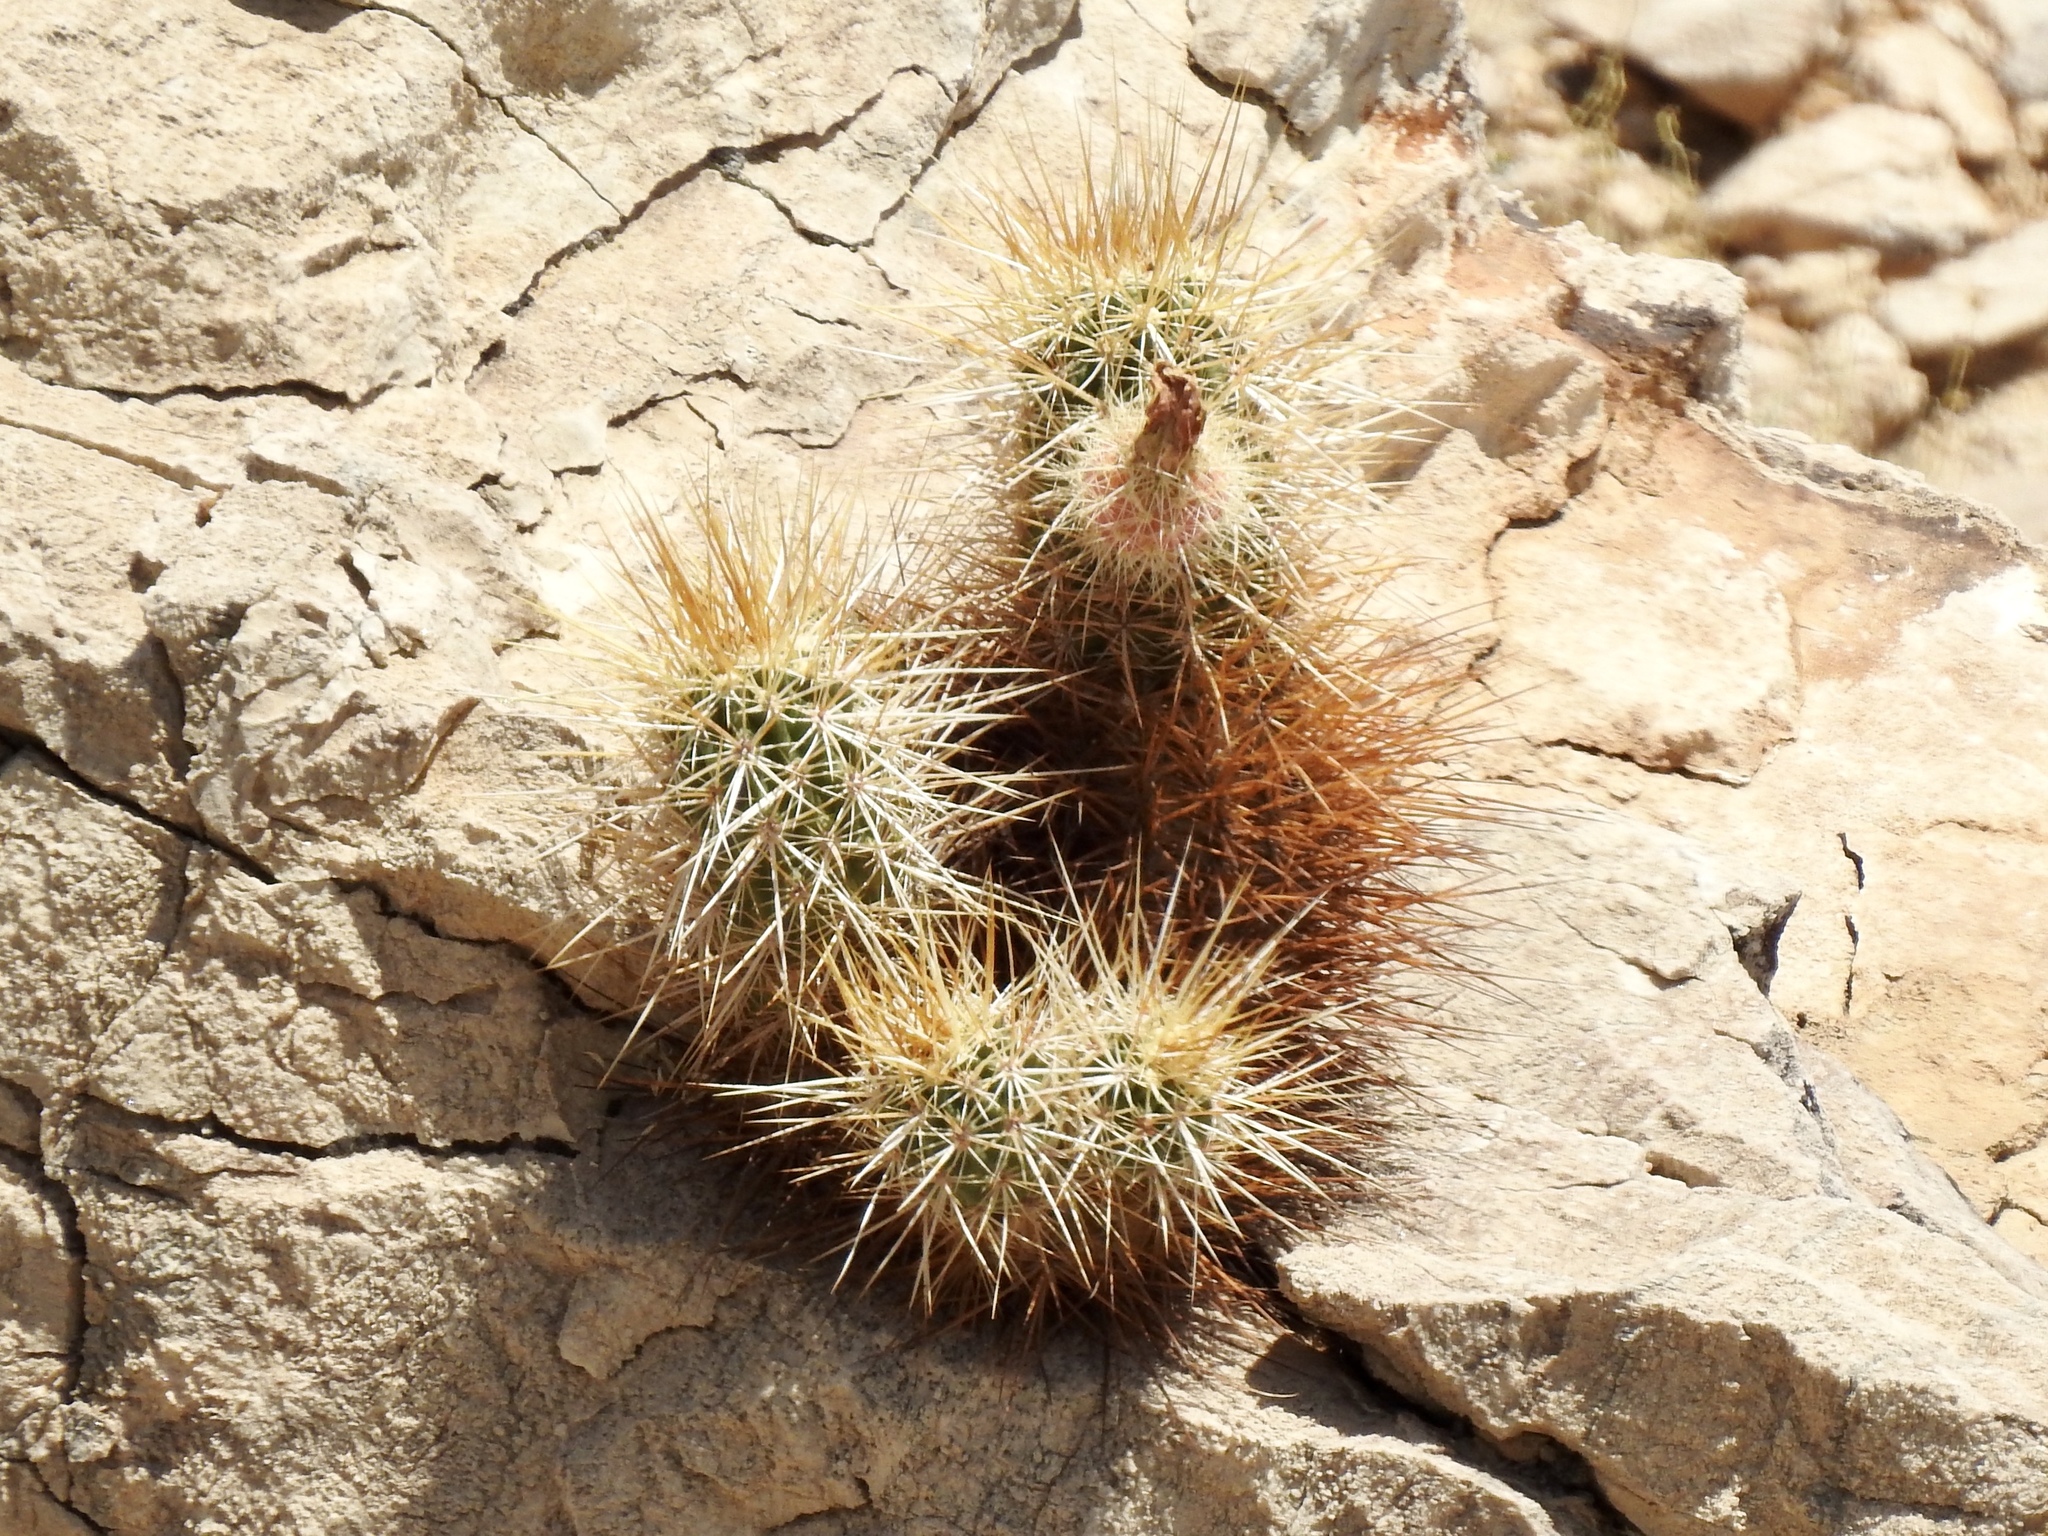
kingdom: Plantae
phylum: Tracheophyta
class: Magnoliopsida
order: Caryophyllales
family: Cactaceae
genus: Echinocereus
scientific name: Echinocereus engelmannii
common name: Engelmann's hedgehog cactus
